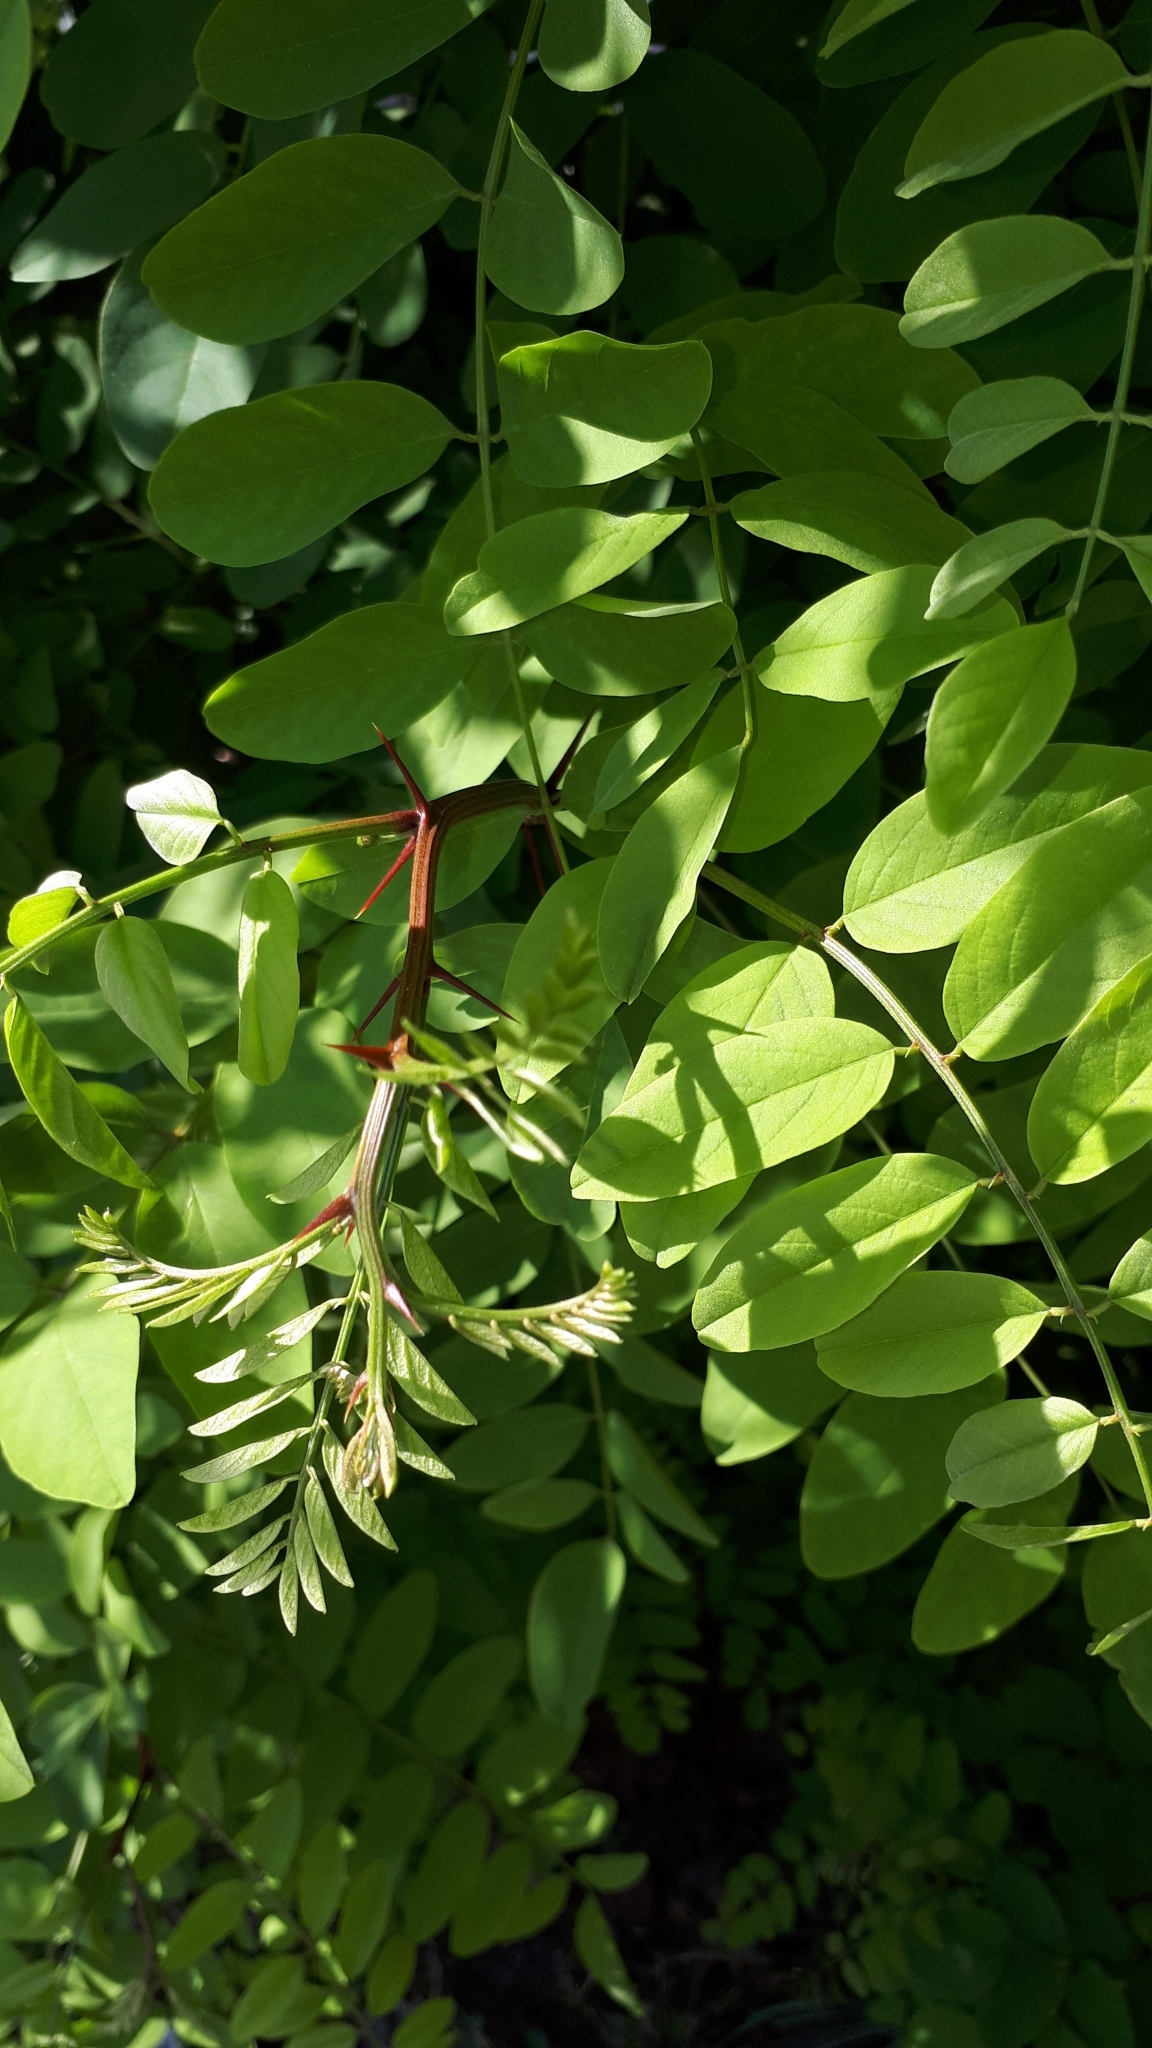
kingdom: Plantae
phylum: Tracheophyta
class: Magnoliopsida
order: Fabales
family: Fabaceae
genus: Robinia
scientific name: Robinia pseudoacacia
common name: Black locust
